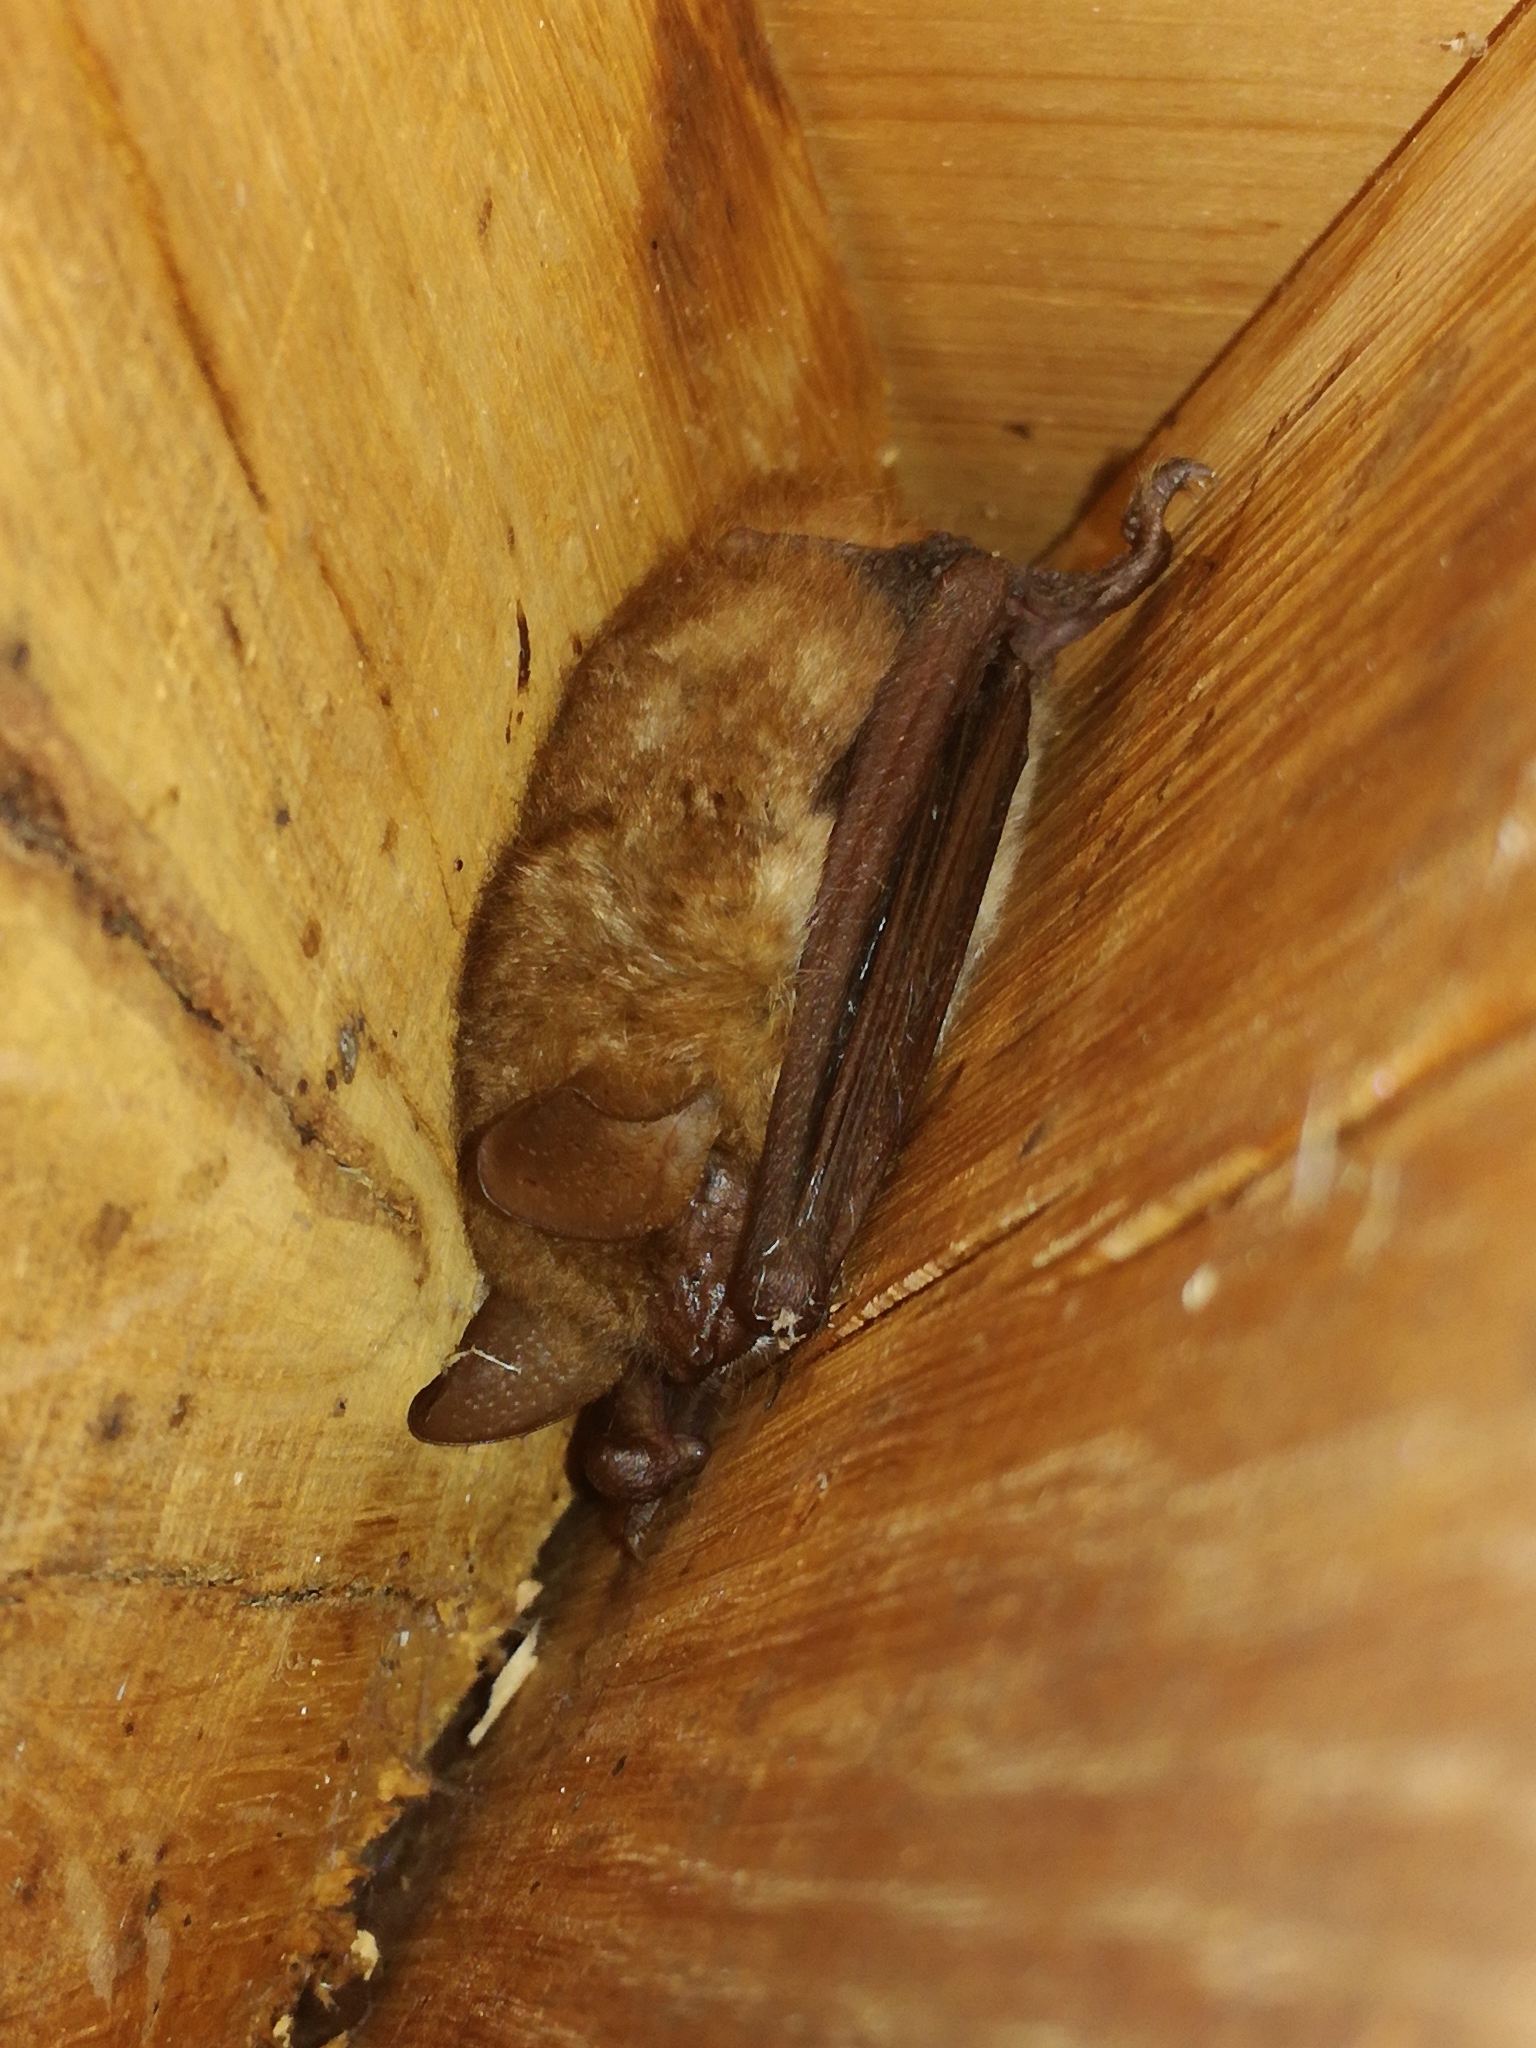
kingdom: Animalia
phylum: Chordata
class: Mammalia
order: Chiroptera
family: Vespertilionidae
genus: Myotis
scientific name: Myotis emarginatus
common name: Geoffroy's bat
